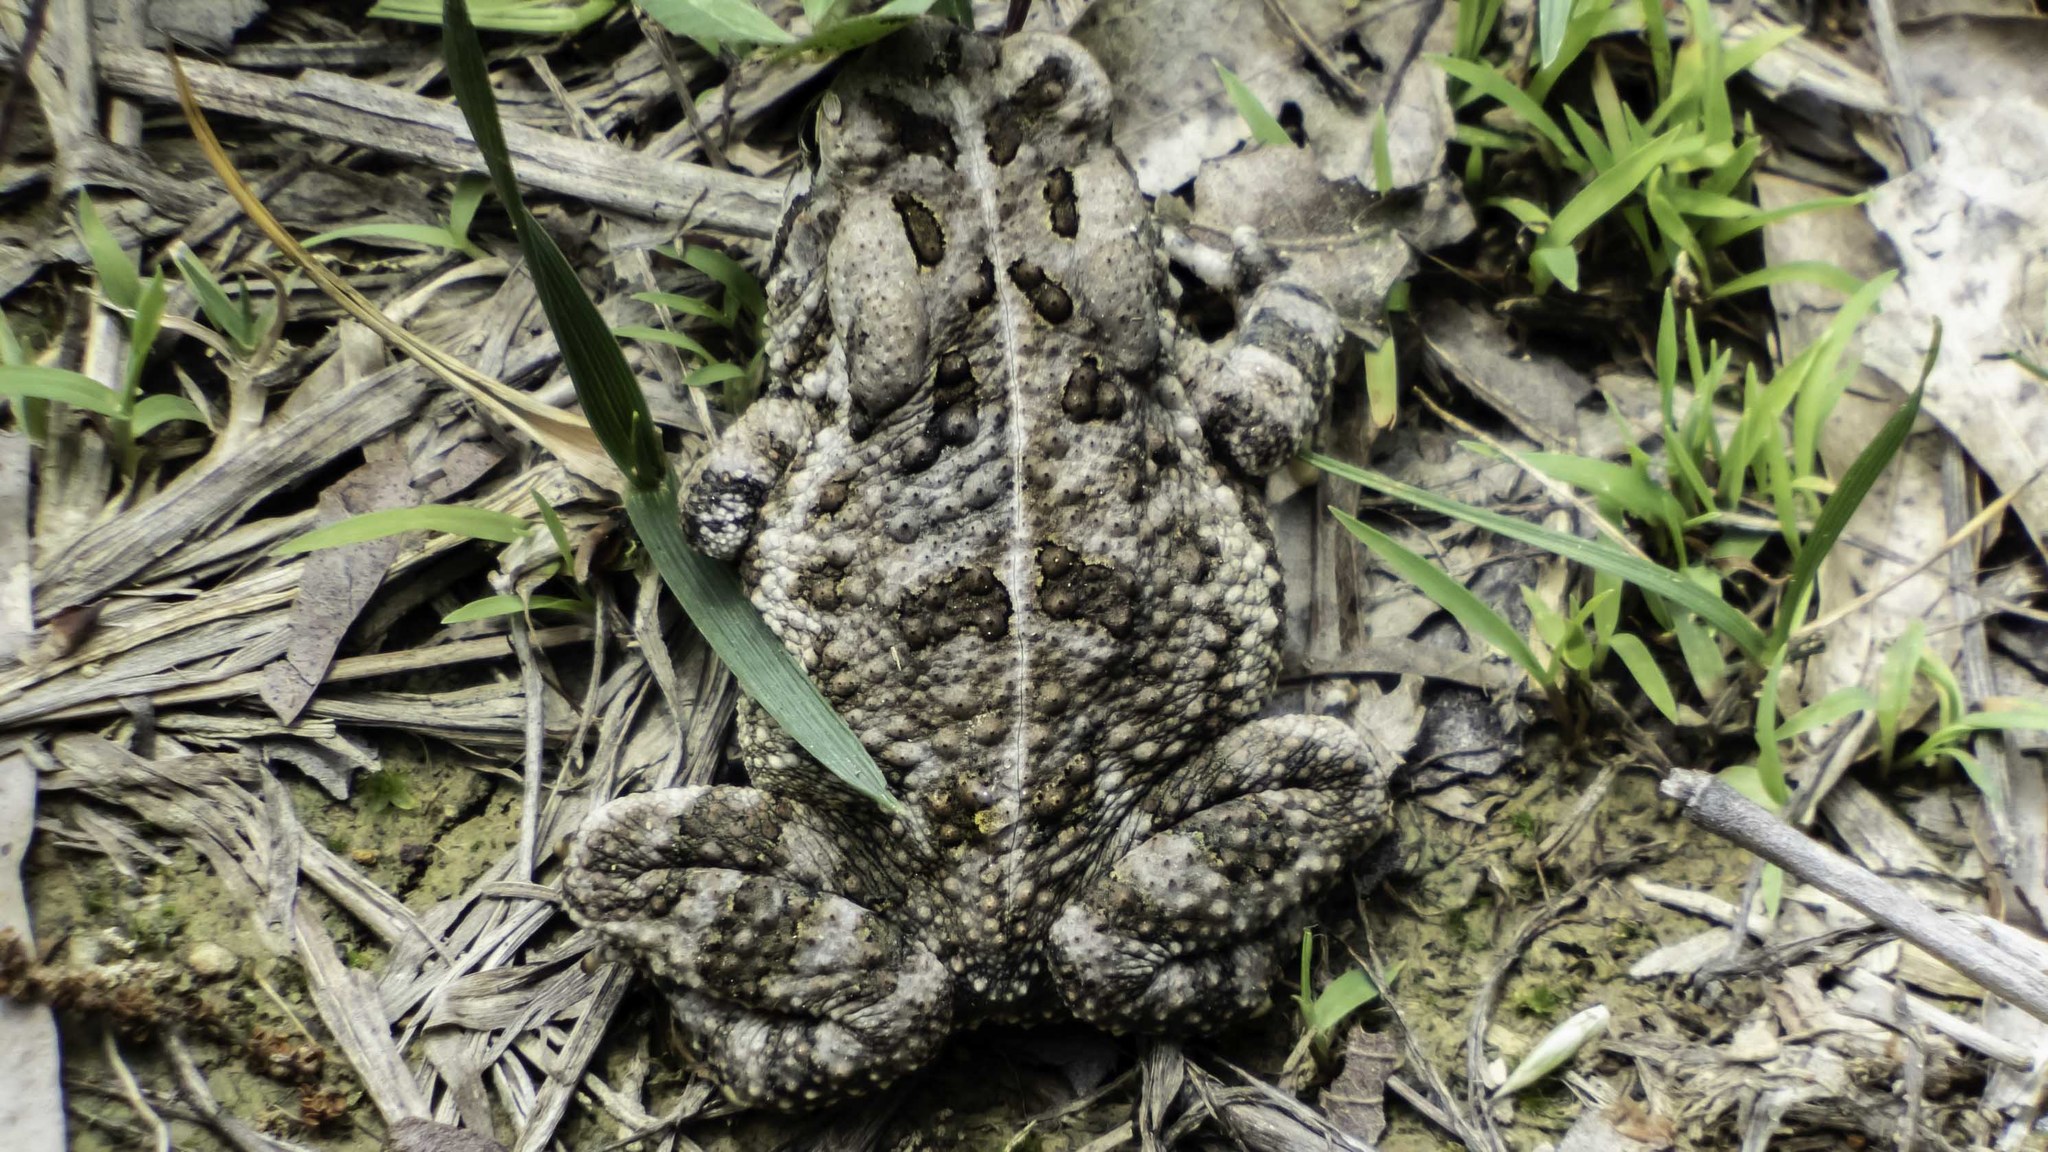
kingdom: Animalia
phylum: Chordata
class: Amphibia
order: Anura
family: Bufonidae
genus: Anaxyrus
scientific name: Anaxyrus fowleri
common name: Fowler's toad
